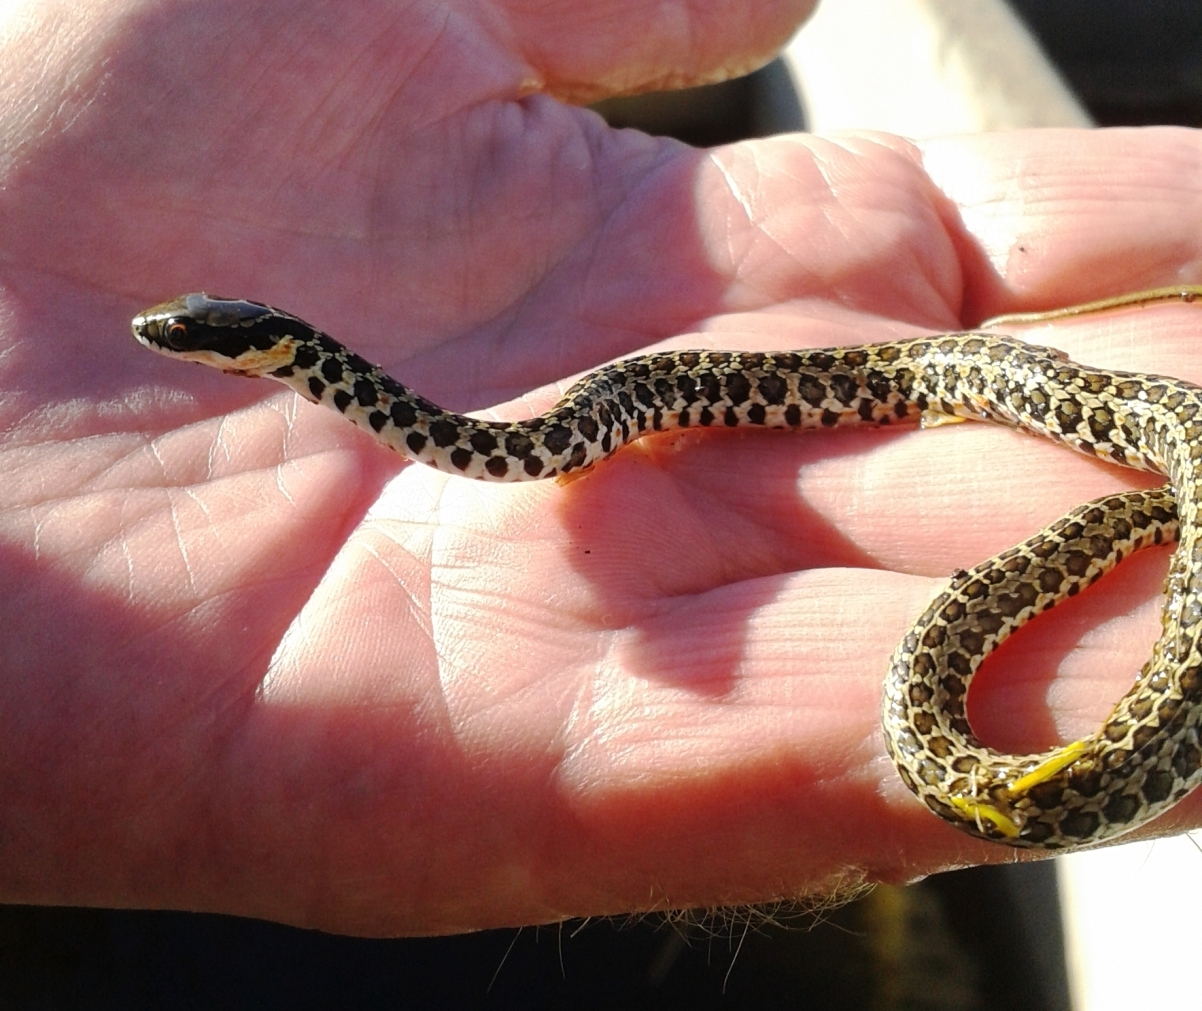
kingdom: Animalia
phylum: Chordata
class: Squamata
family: Psammophiidae
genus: Psammophylax
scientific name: Psammophylax rhombeatus
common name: Rhombic skaapsteker
